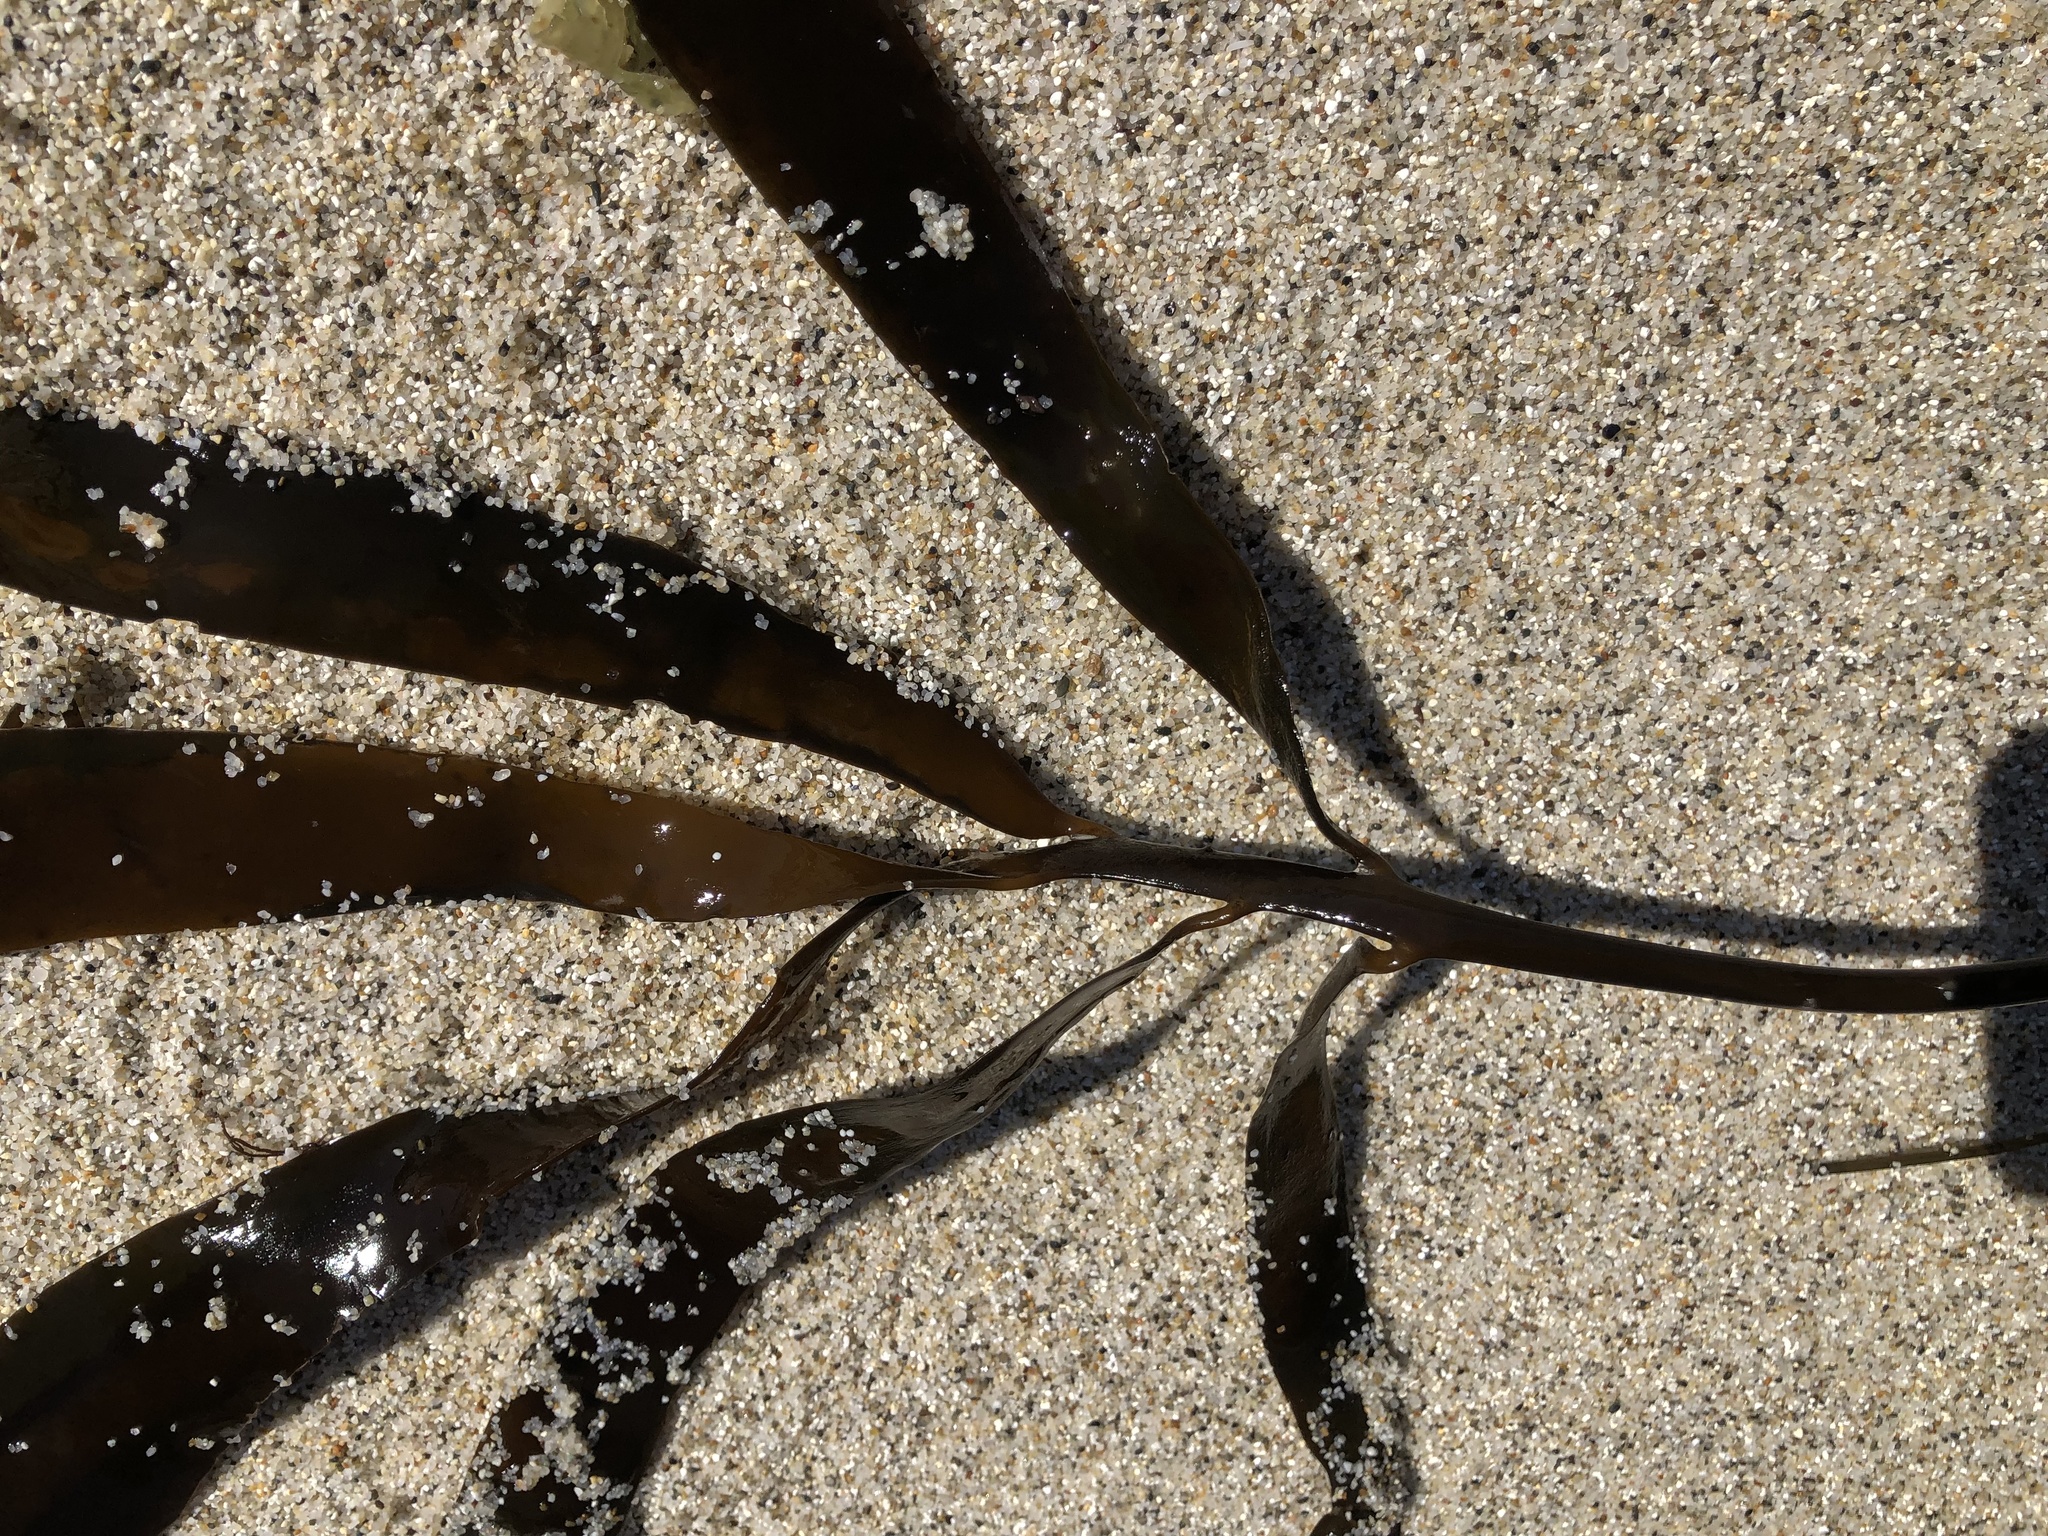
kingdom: Chromista
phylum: Ochrophyta
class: Phaeophyceae
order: Laminariales
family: Alariaceae
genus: Pterygophora
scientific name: Pterygophora californica
